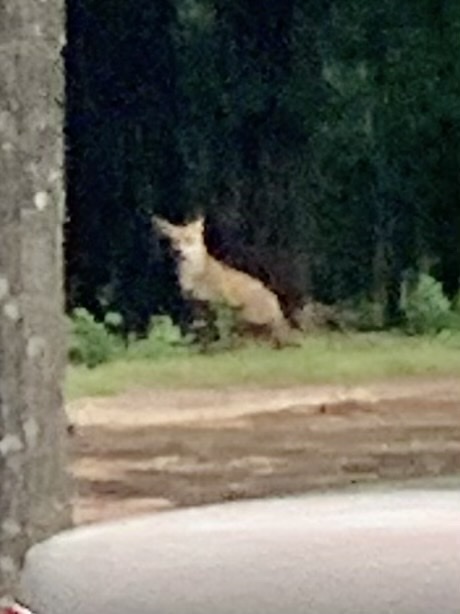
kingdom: Animalia
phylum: Chordata
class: Mammalia
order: Carnivora
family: Canidae
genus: Vulpes
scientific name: Vulpes vulpes
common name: Red fox
